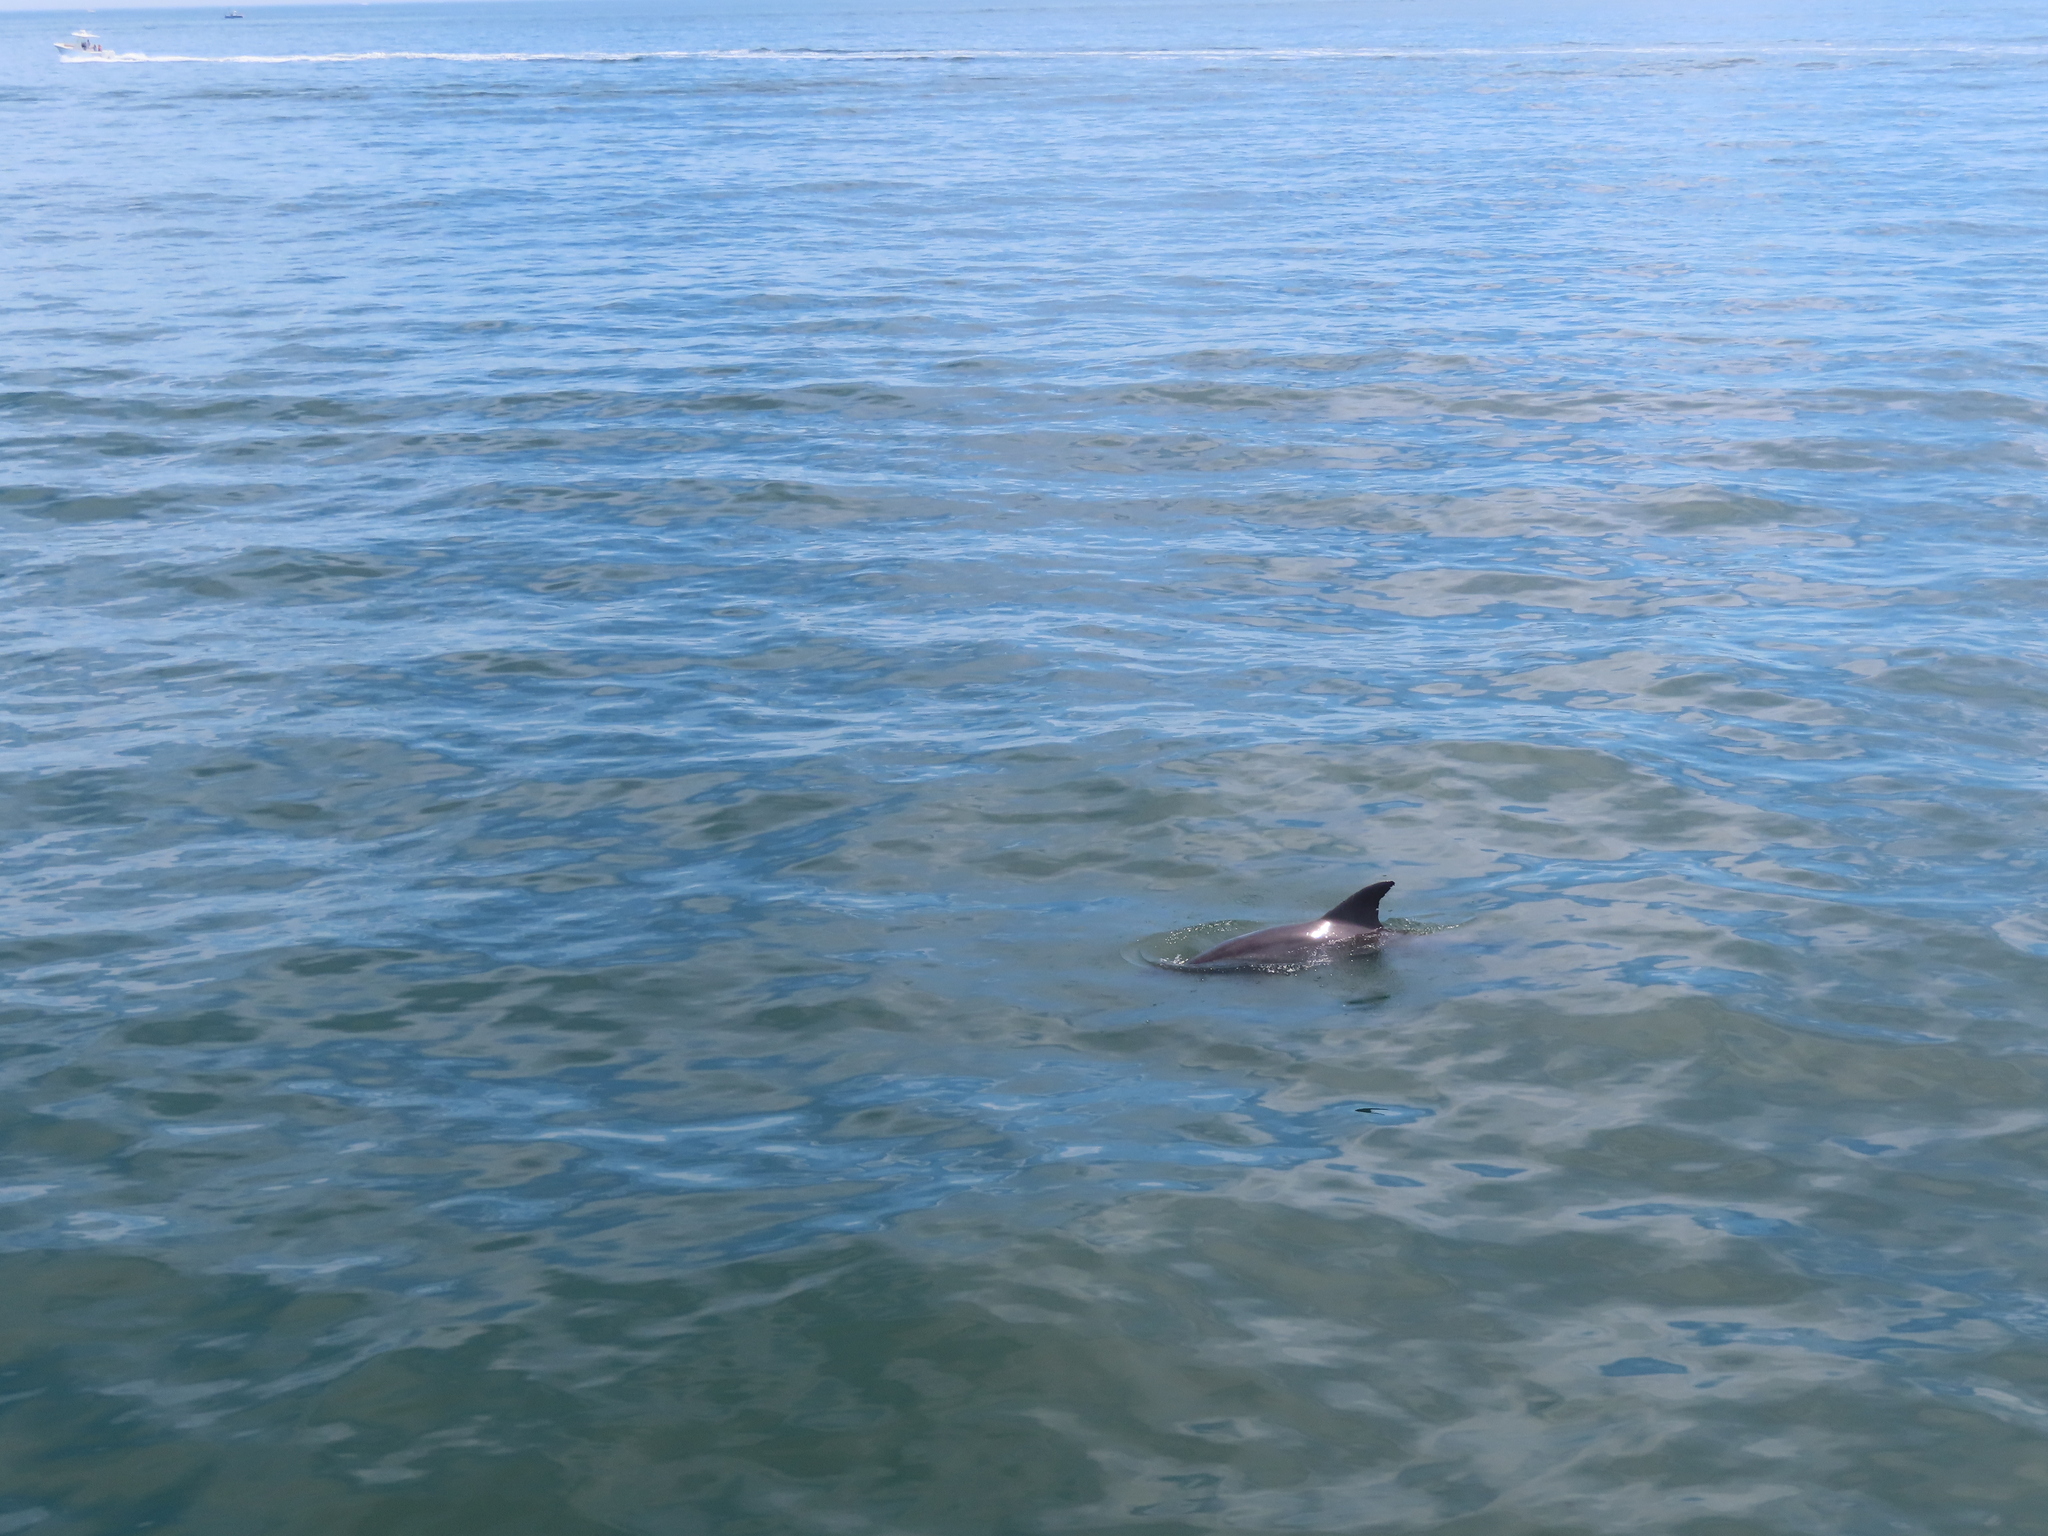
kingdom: Animalia
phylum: Chordata
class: Mammalia
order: Cetacea
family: Delphinidae
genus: Tursiops
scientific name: Tursiops truncatus
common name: Bottlenose dolphin
